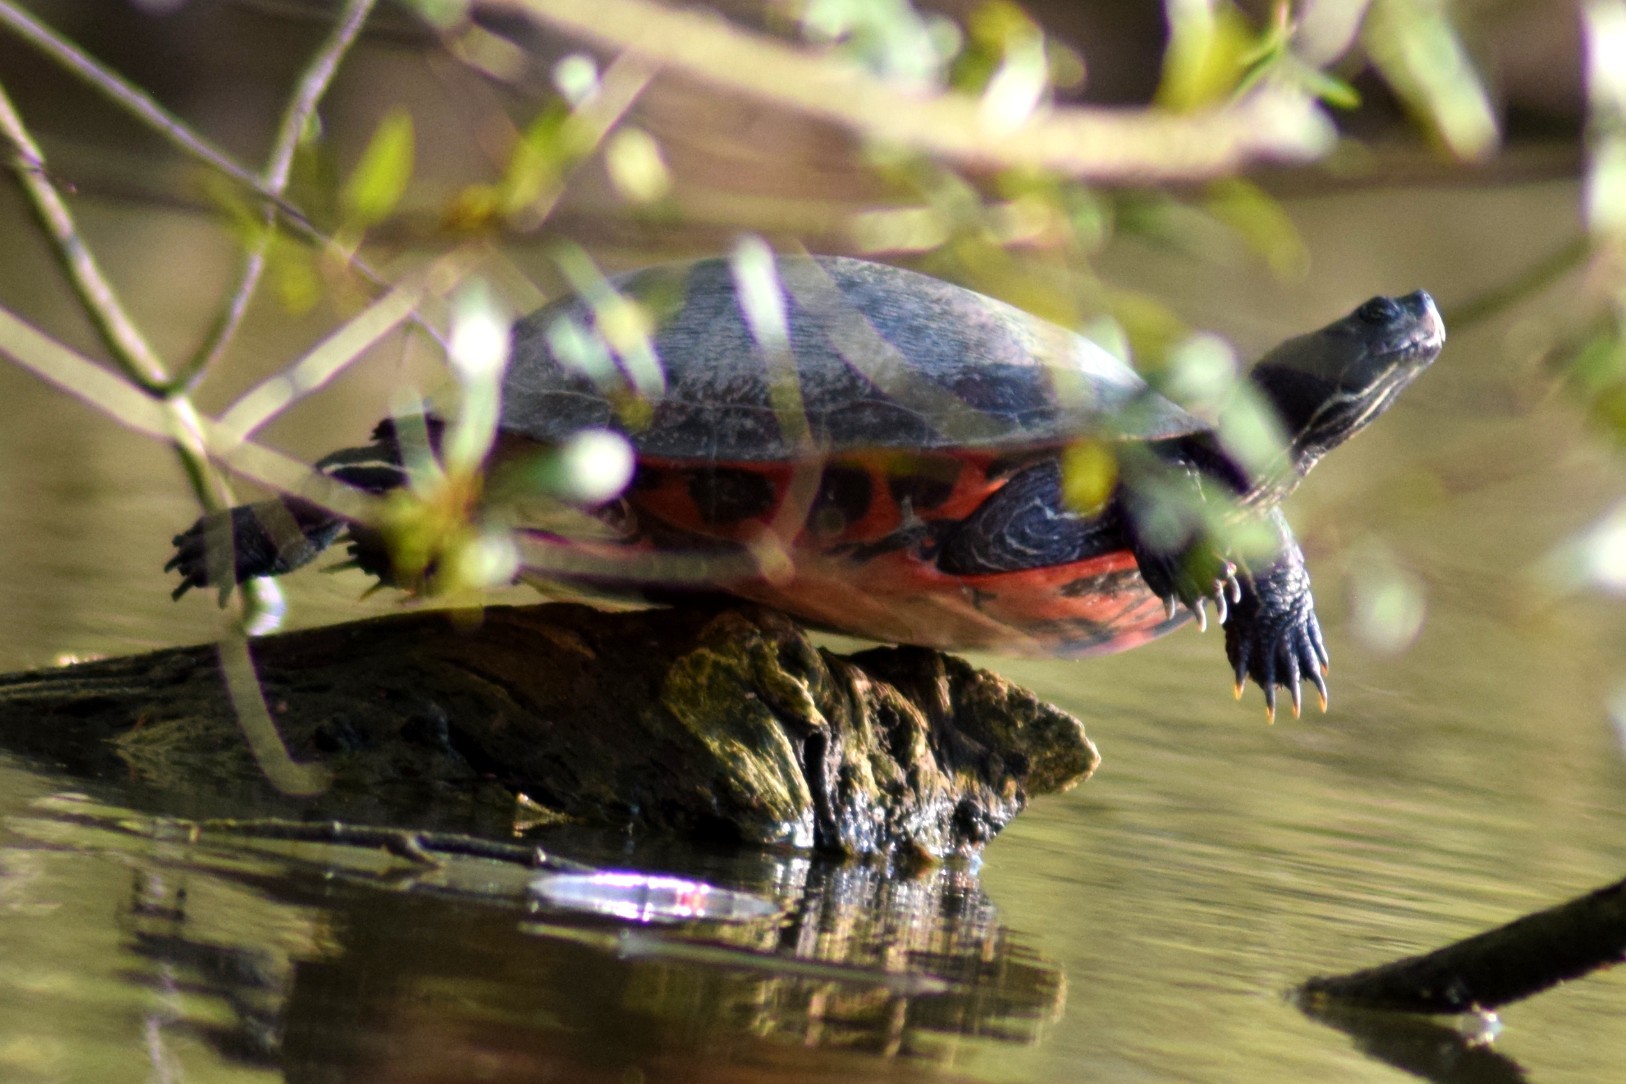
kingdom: Animalia
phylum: Chordata
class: Testudines
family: Emydidae
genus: Pseudemys
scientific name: Pseudemys rubriventris
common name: American red-bellied turtle
